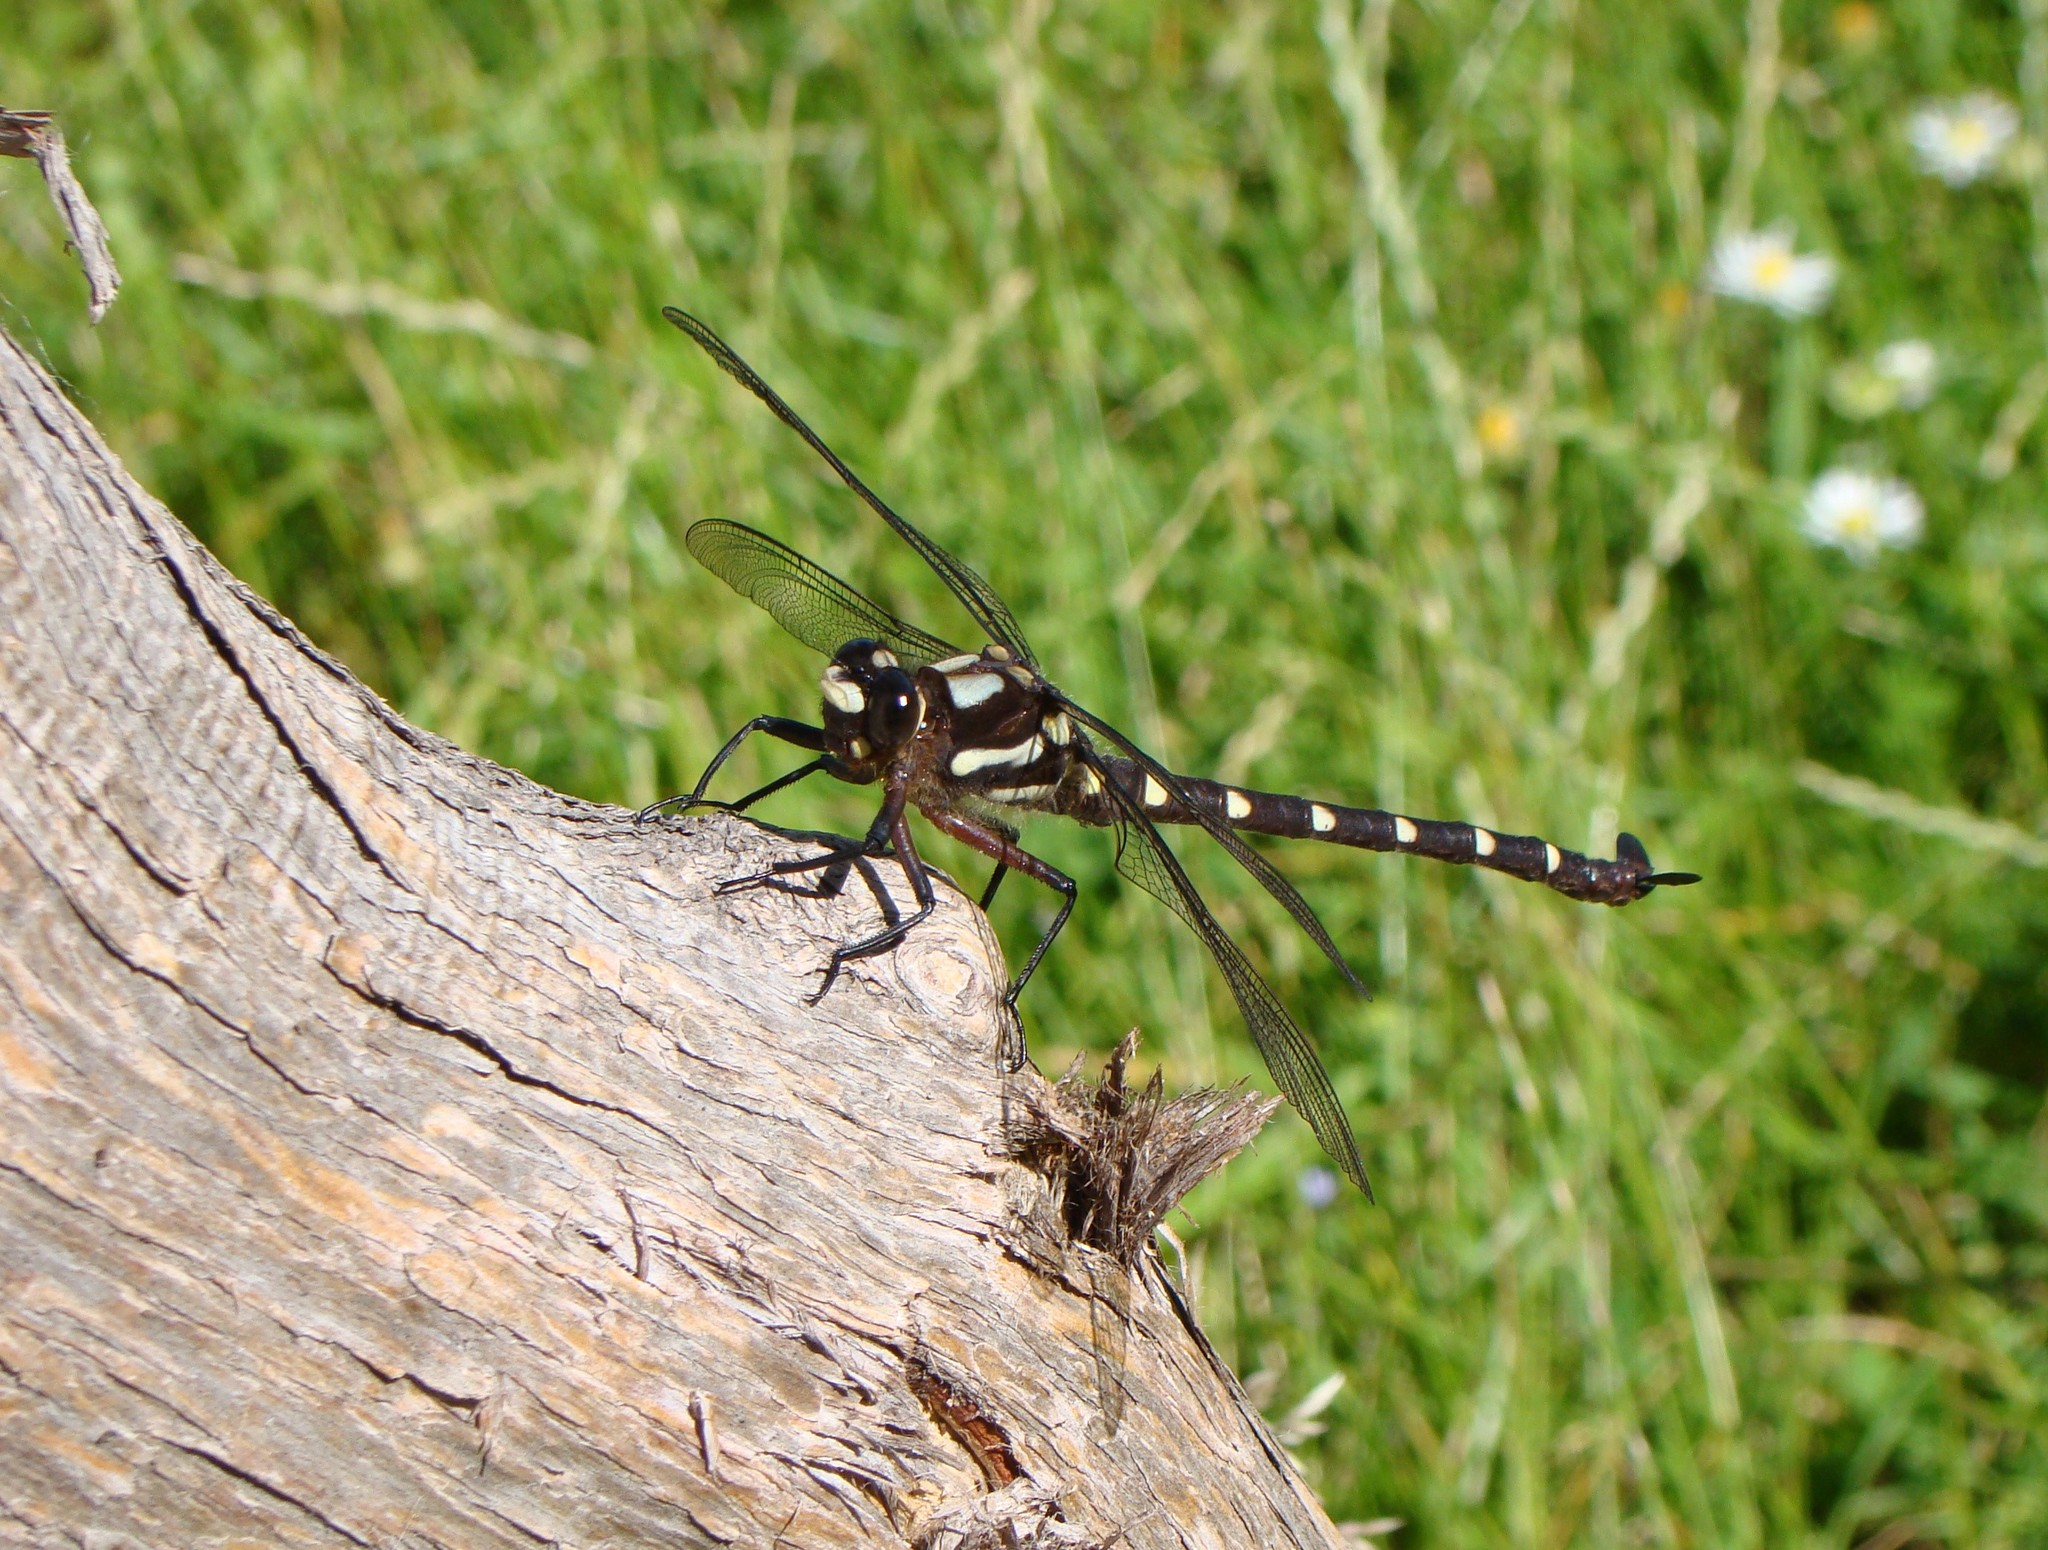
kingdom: Animalia
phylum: Arthropoda
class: Insecta
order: Odonata
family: Petaluridae
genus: Uropetala
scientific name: Uropetala carovei
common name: Bush giant dragonfly
